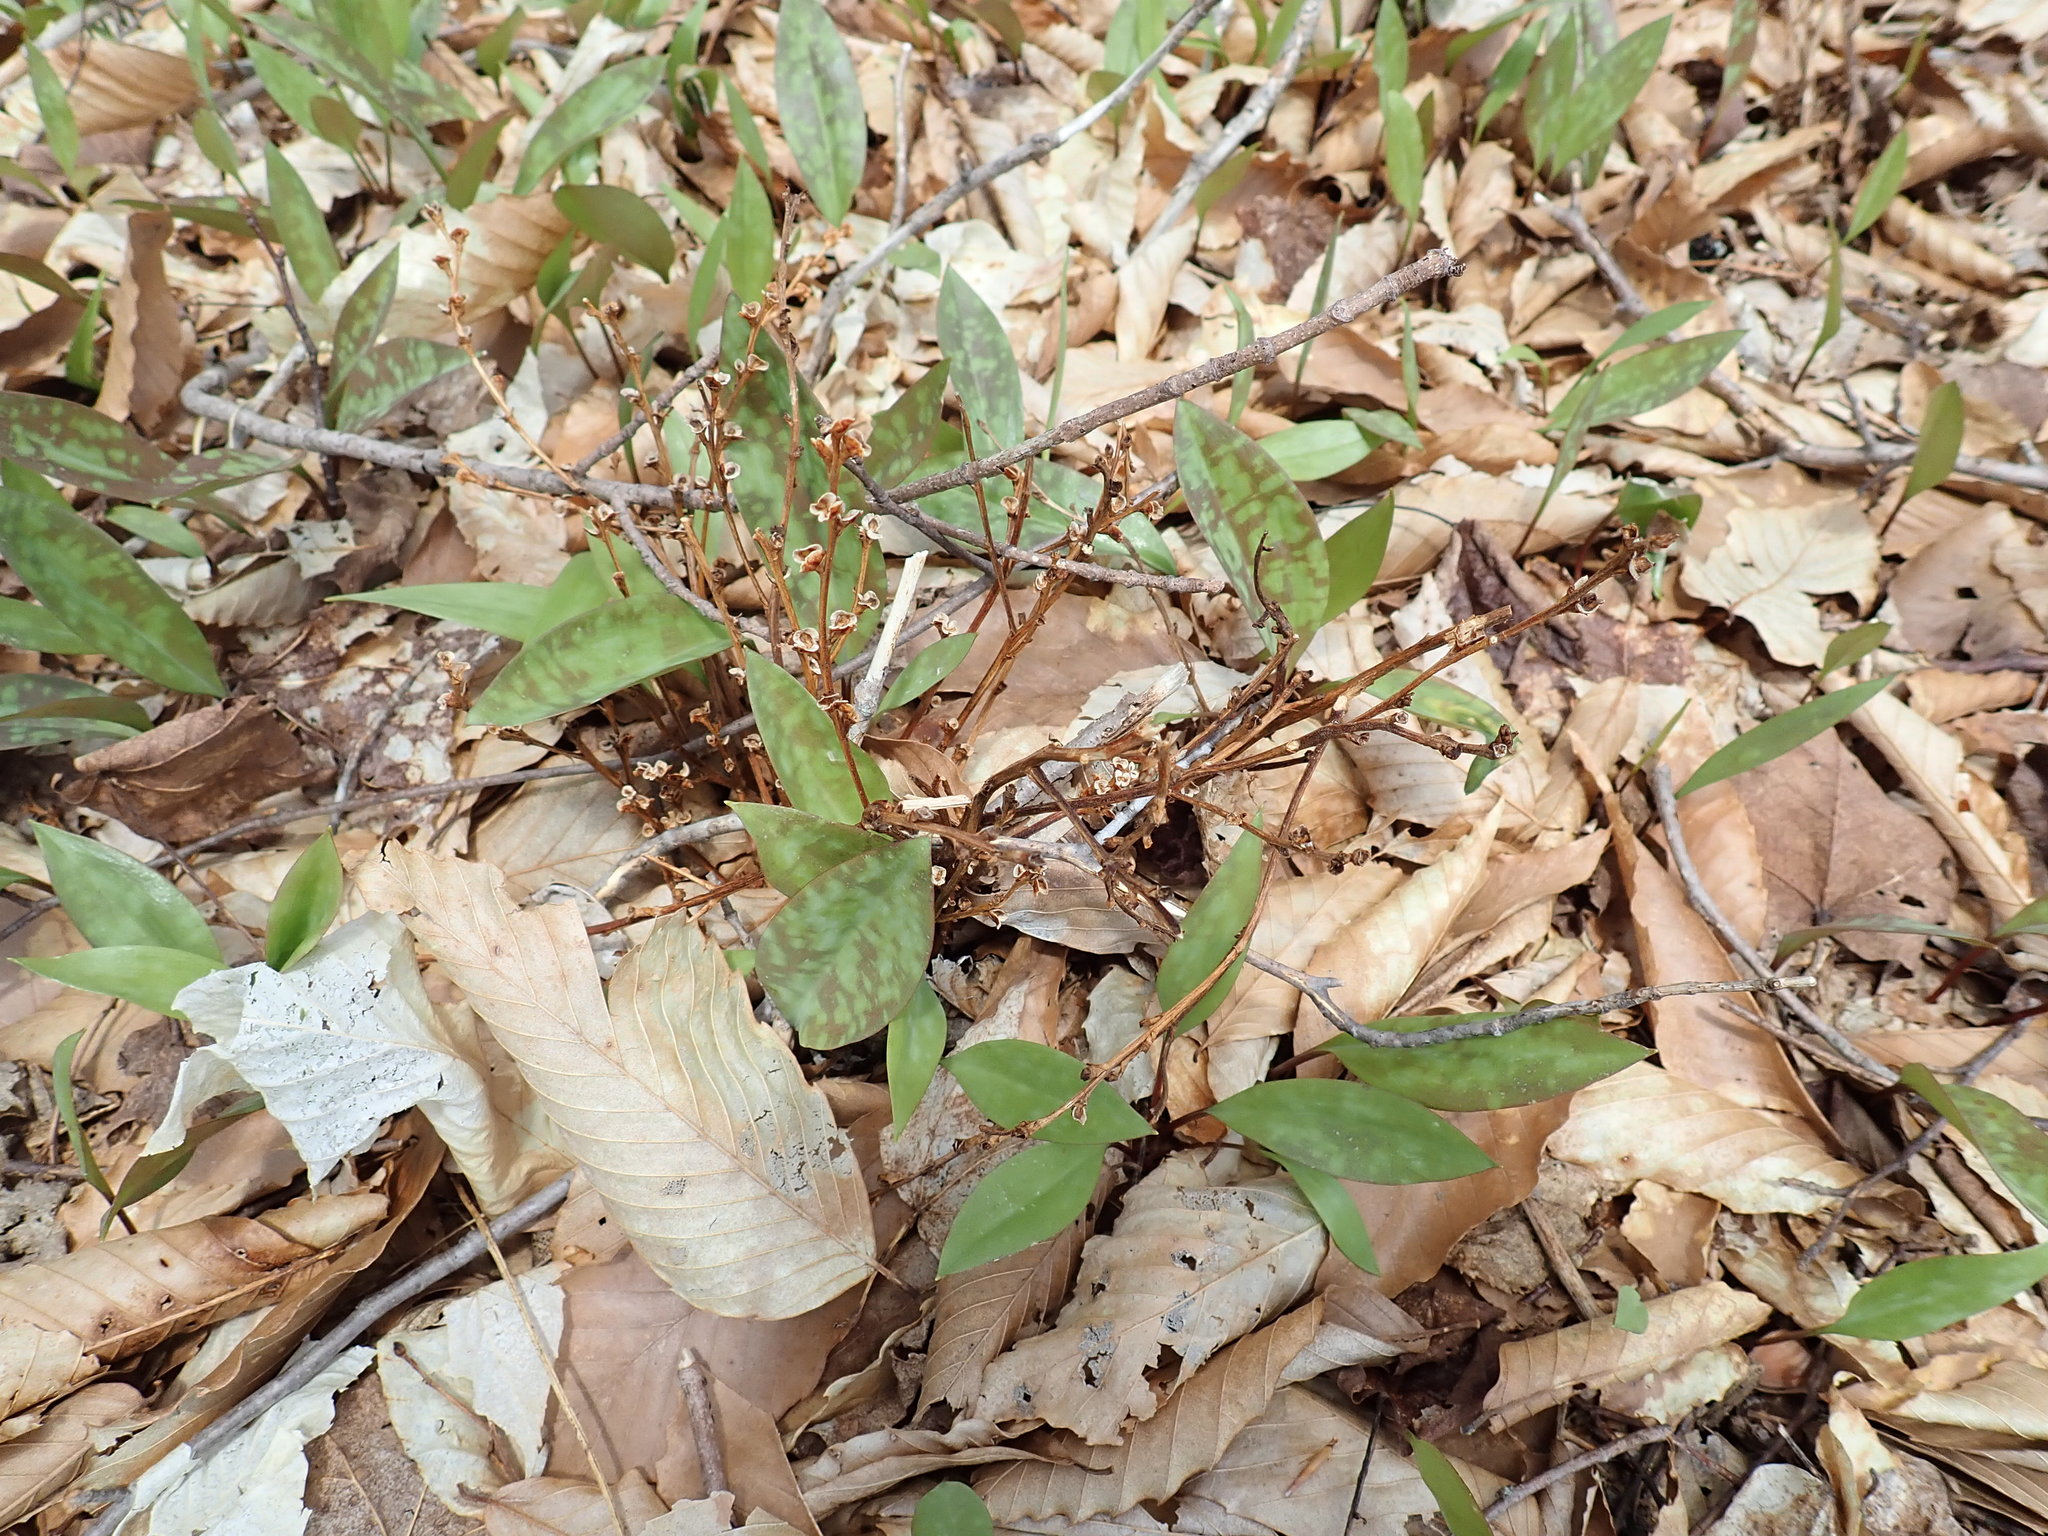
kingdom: Plantae
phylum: Tracheophyta
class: Magnoliopsida
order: Lamiales
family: Orobanchaceae
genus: Epifagus
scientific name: Epifagus virginiana
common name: Beechdrops
